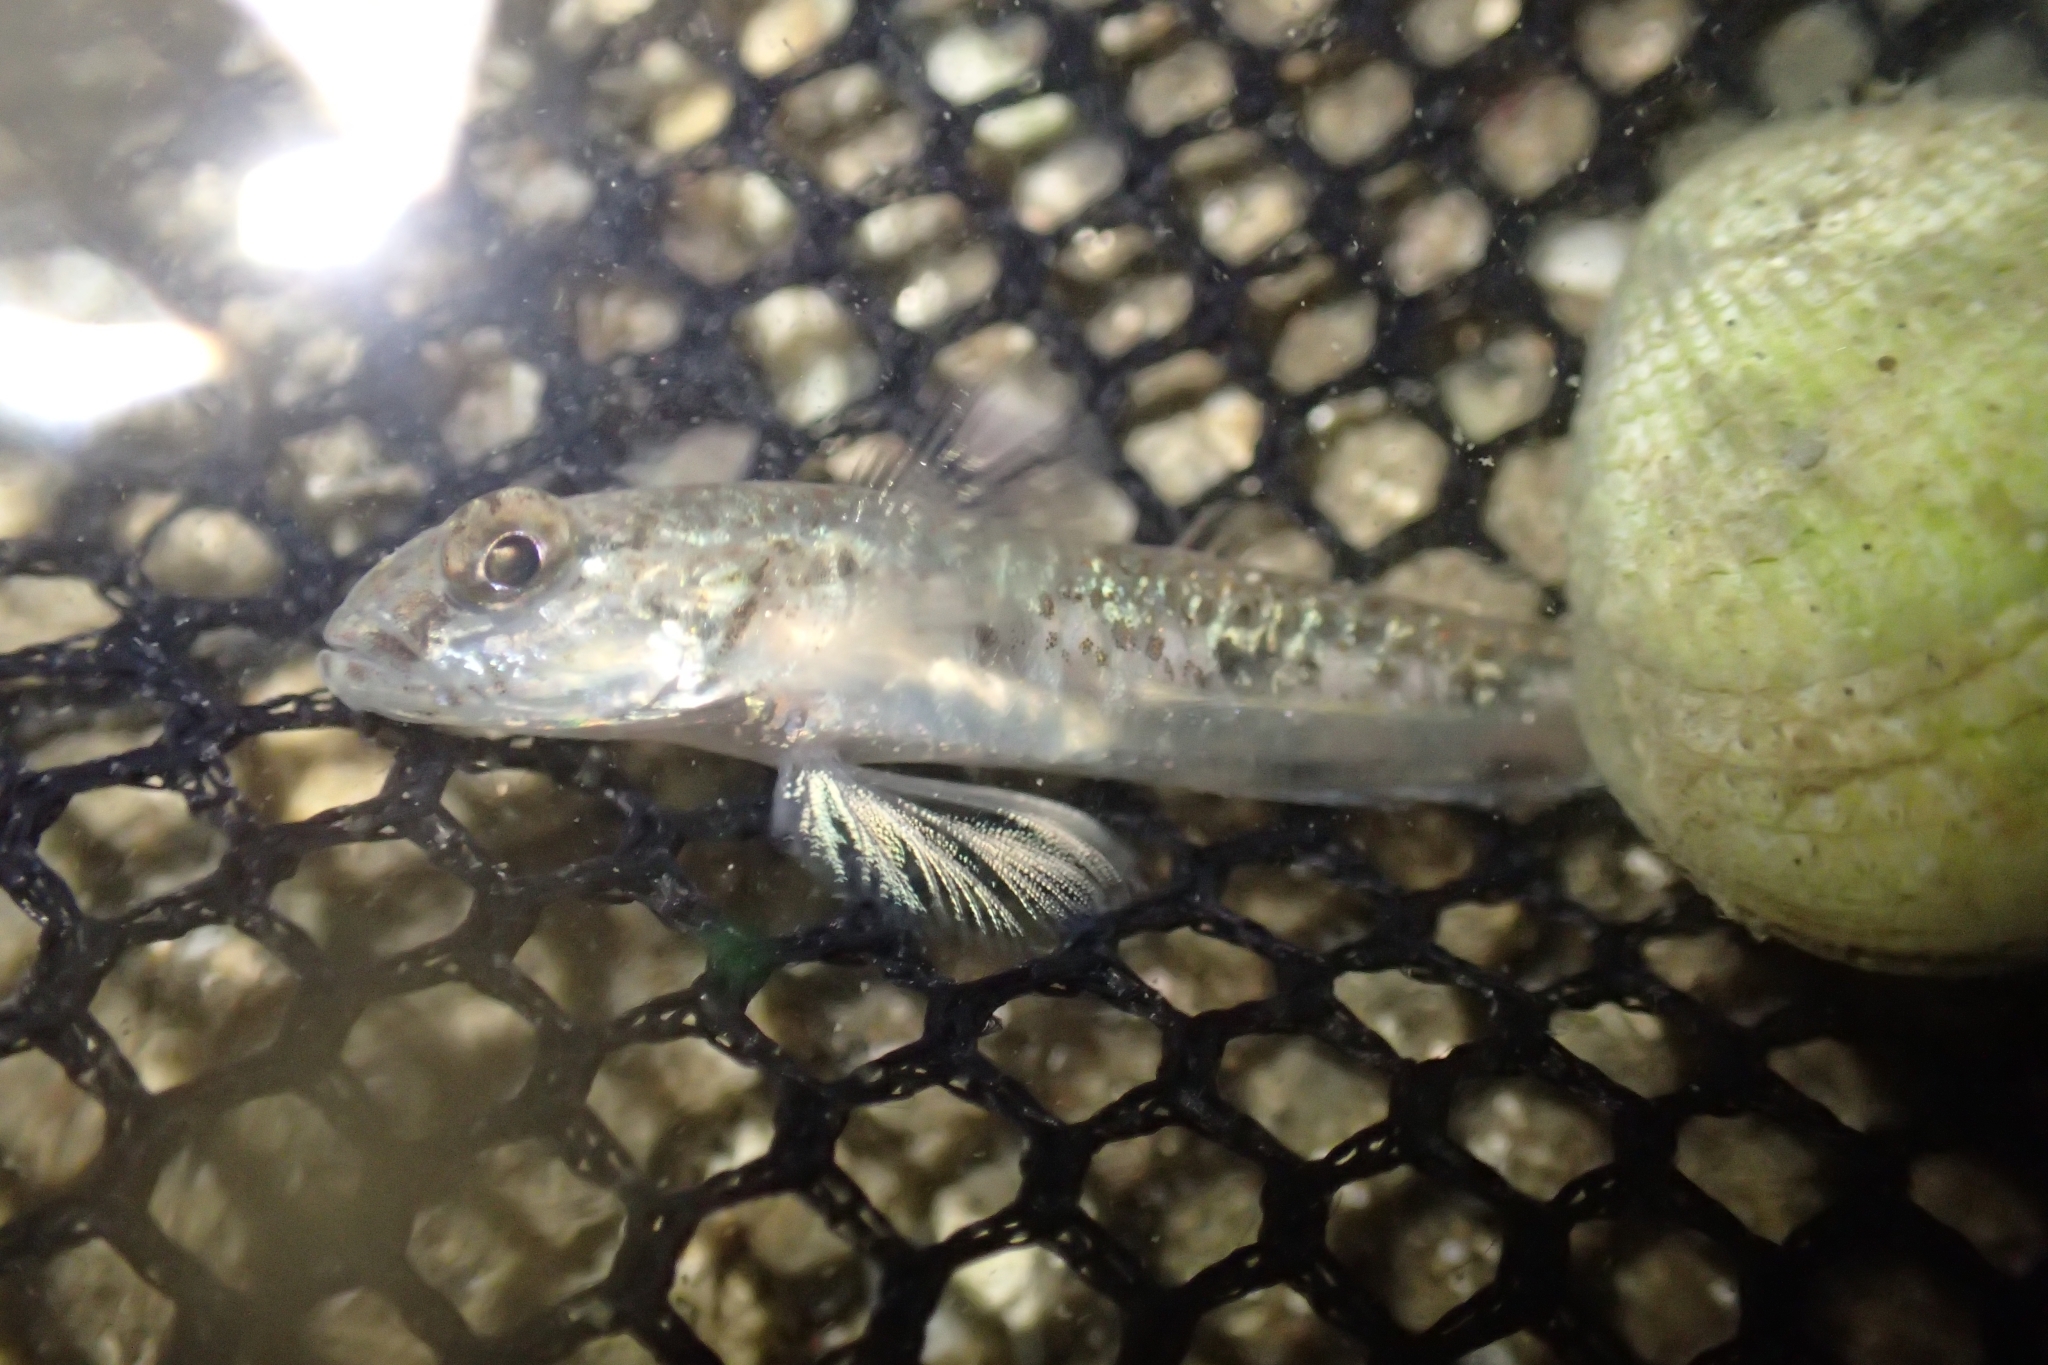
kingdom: Animalia
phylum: Chordata
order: Perciformes
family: Gobiidae
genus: Favonigobius
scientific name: Favonigobius exquisitus
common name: Exquisite sand-goby
